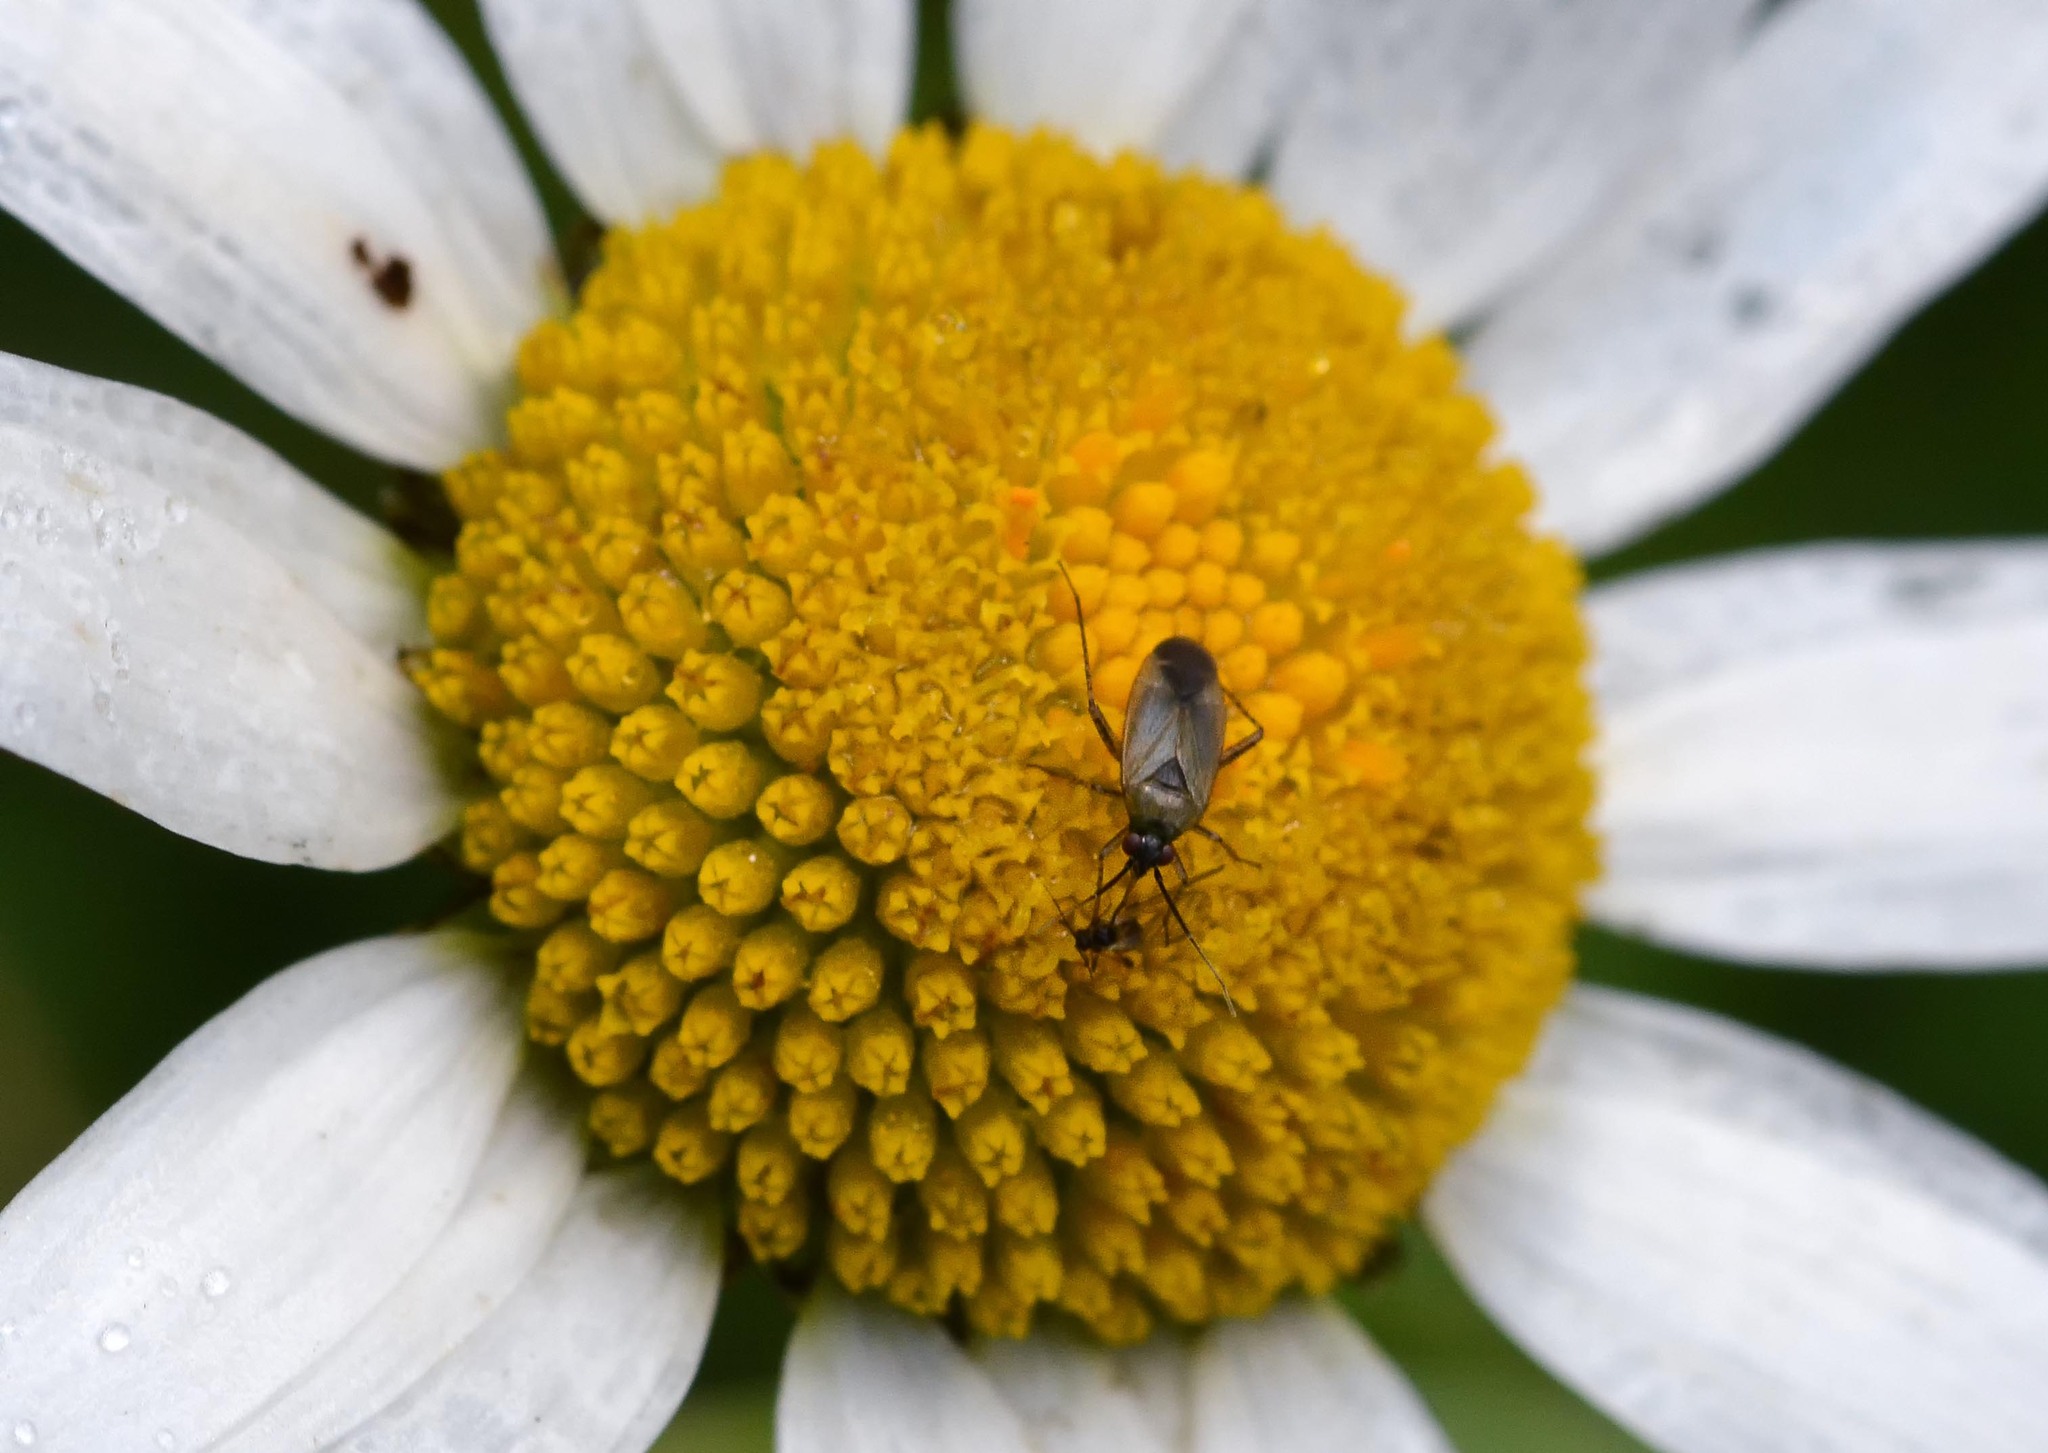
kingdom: Animalia
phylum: Arthropoda
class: Insecta
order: Hemiptera
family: Miridae
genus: Plagiognathus
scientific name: Plagiognathus arbustorum
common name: Plant bug
